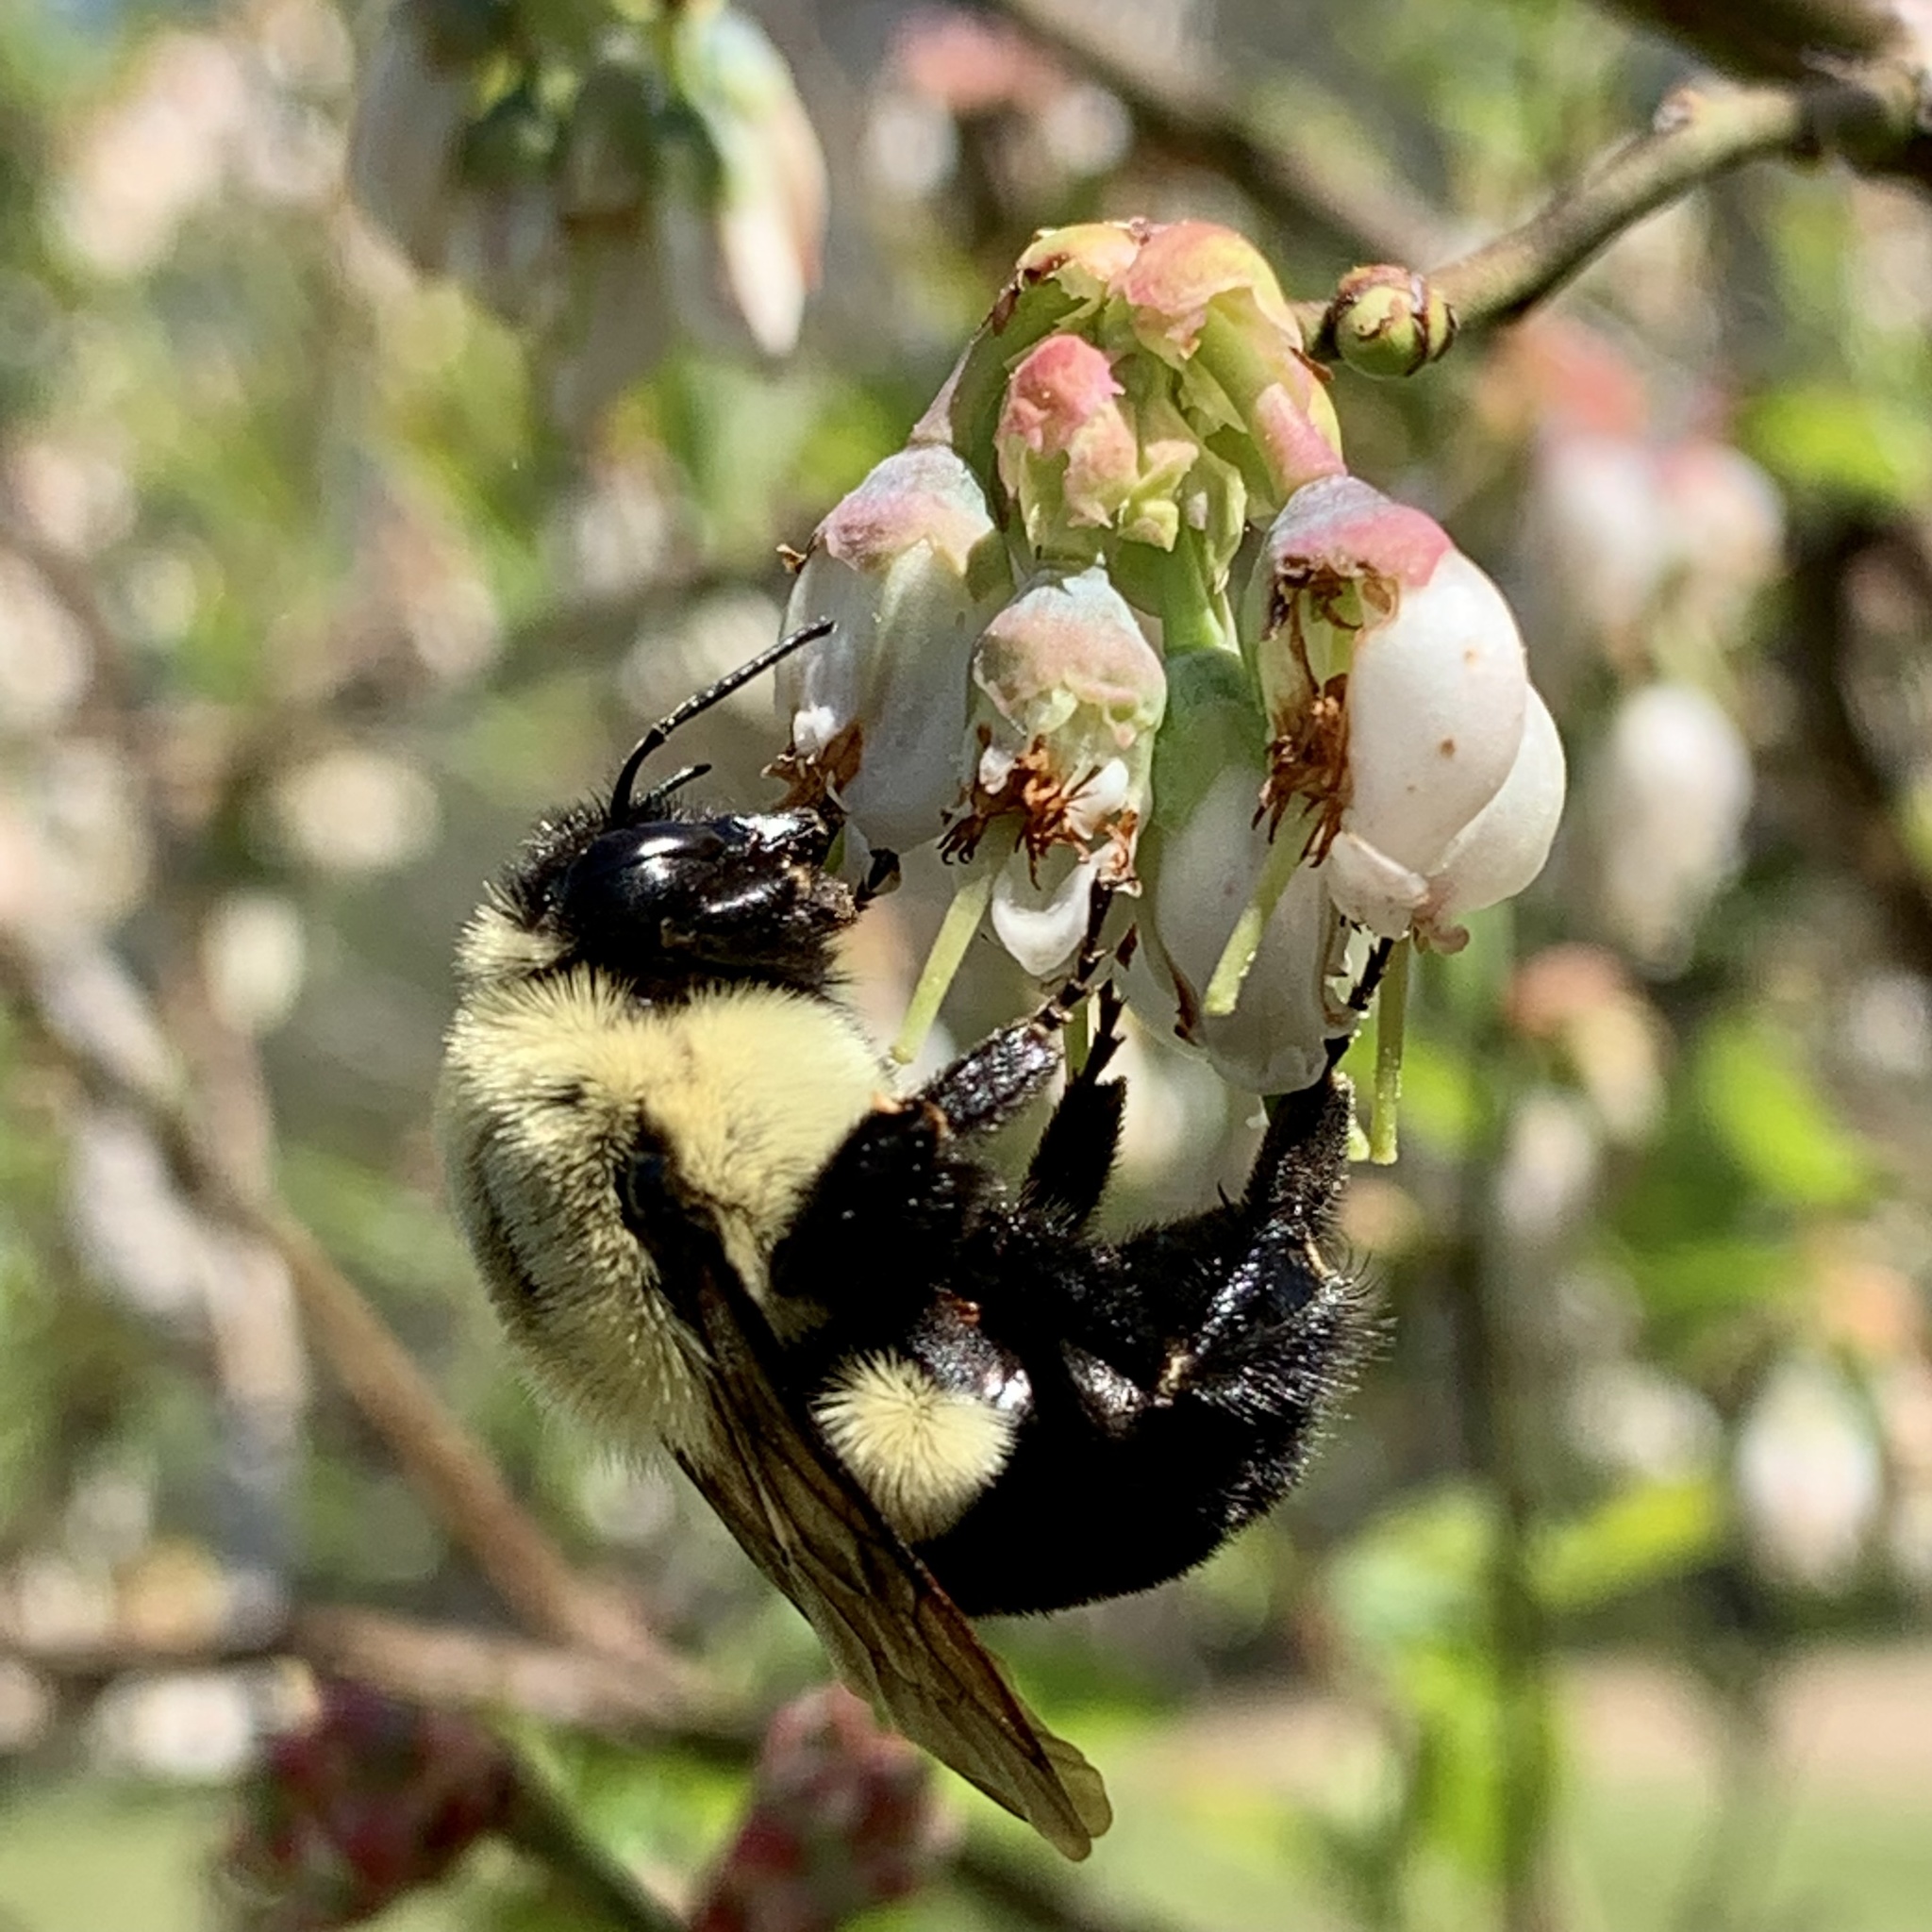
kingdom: Animalia
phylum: Arthropoda
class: Insecta
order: Hymenoptera
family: Apidae
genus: Bombus
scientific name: Bombus impatiens
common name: Common eastern bumble bee
